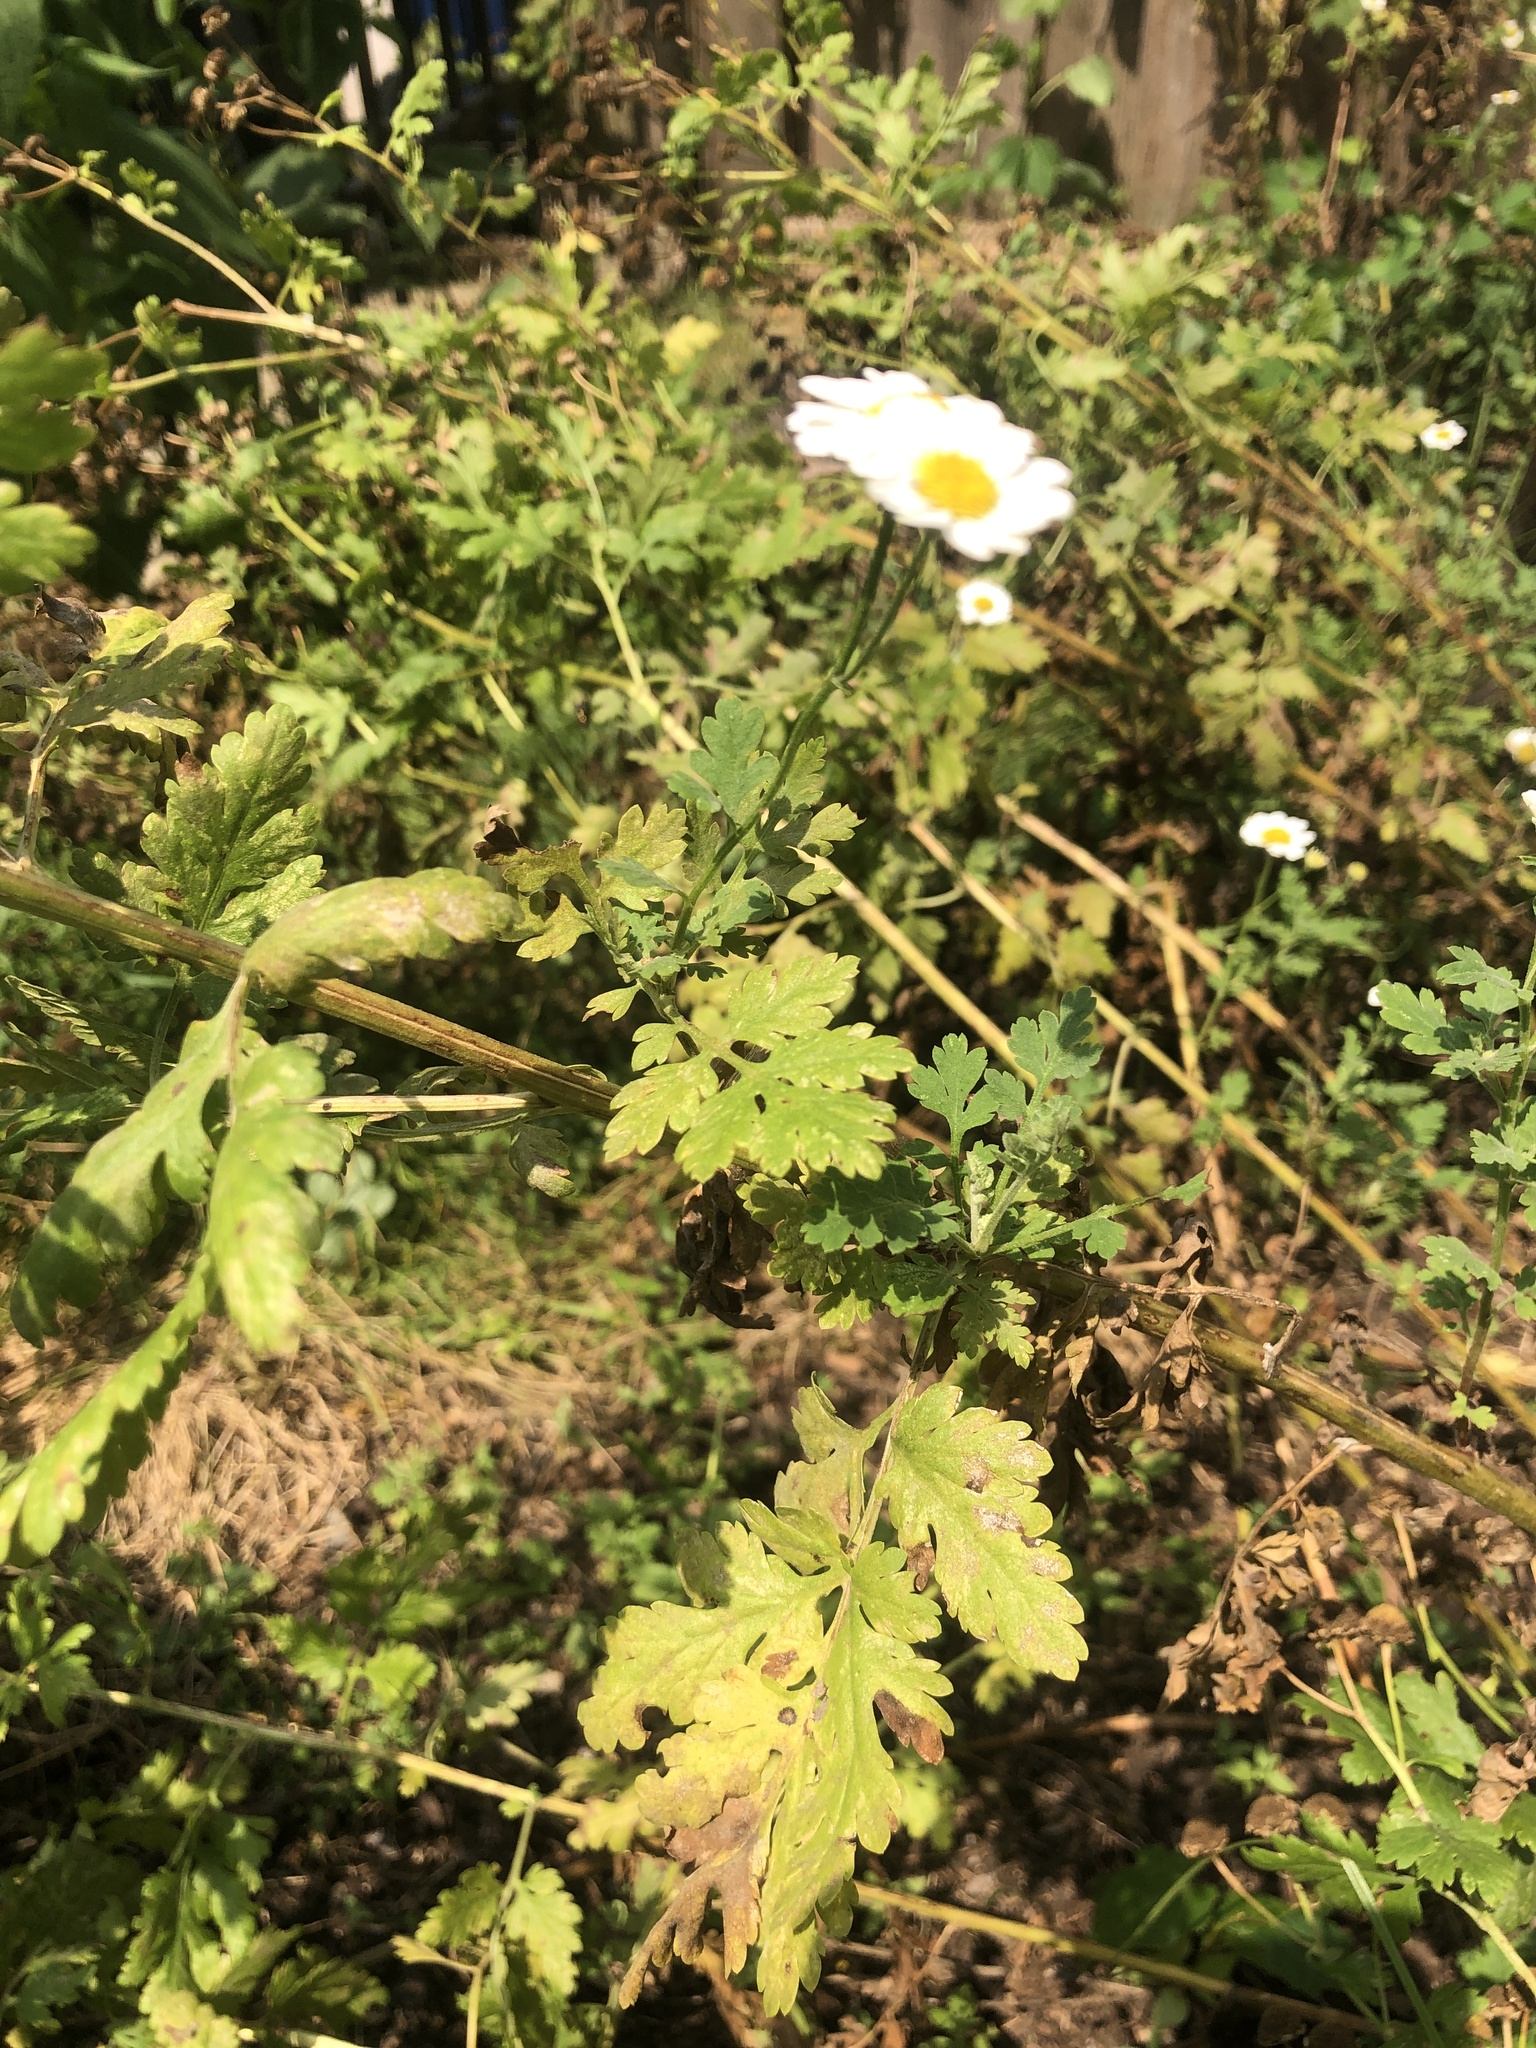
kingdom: Plantae
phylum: Tracheophyta
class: Magnoliopsida
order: Asterales
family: Asteraceae
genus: Tanacetum
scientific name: Tanacetum parthenium
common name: Feverfew
